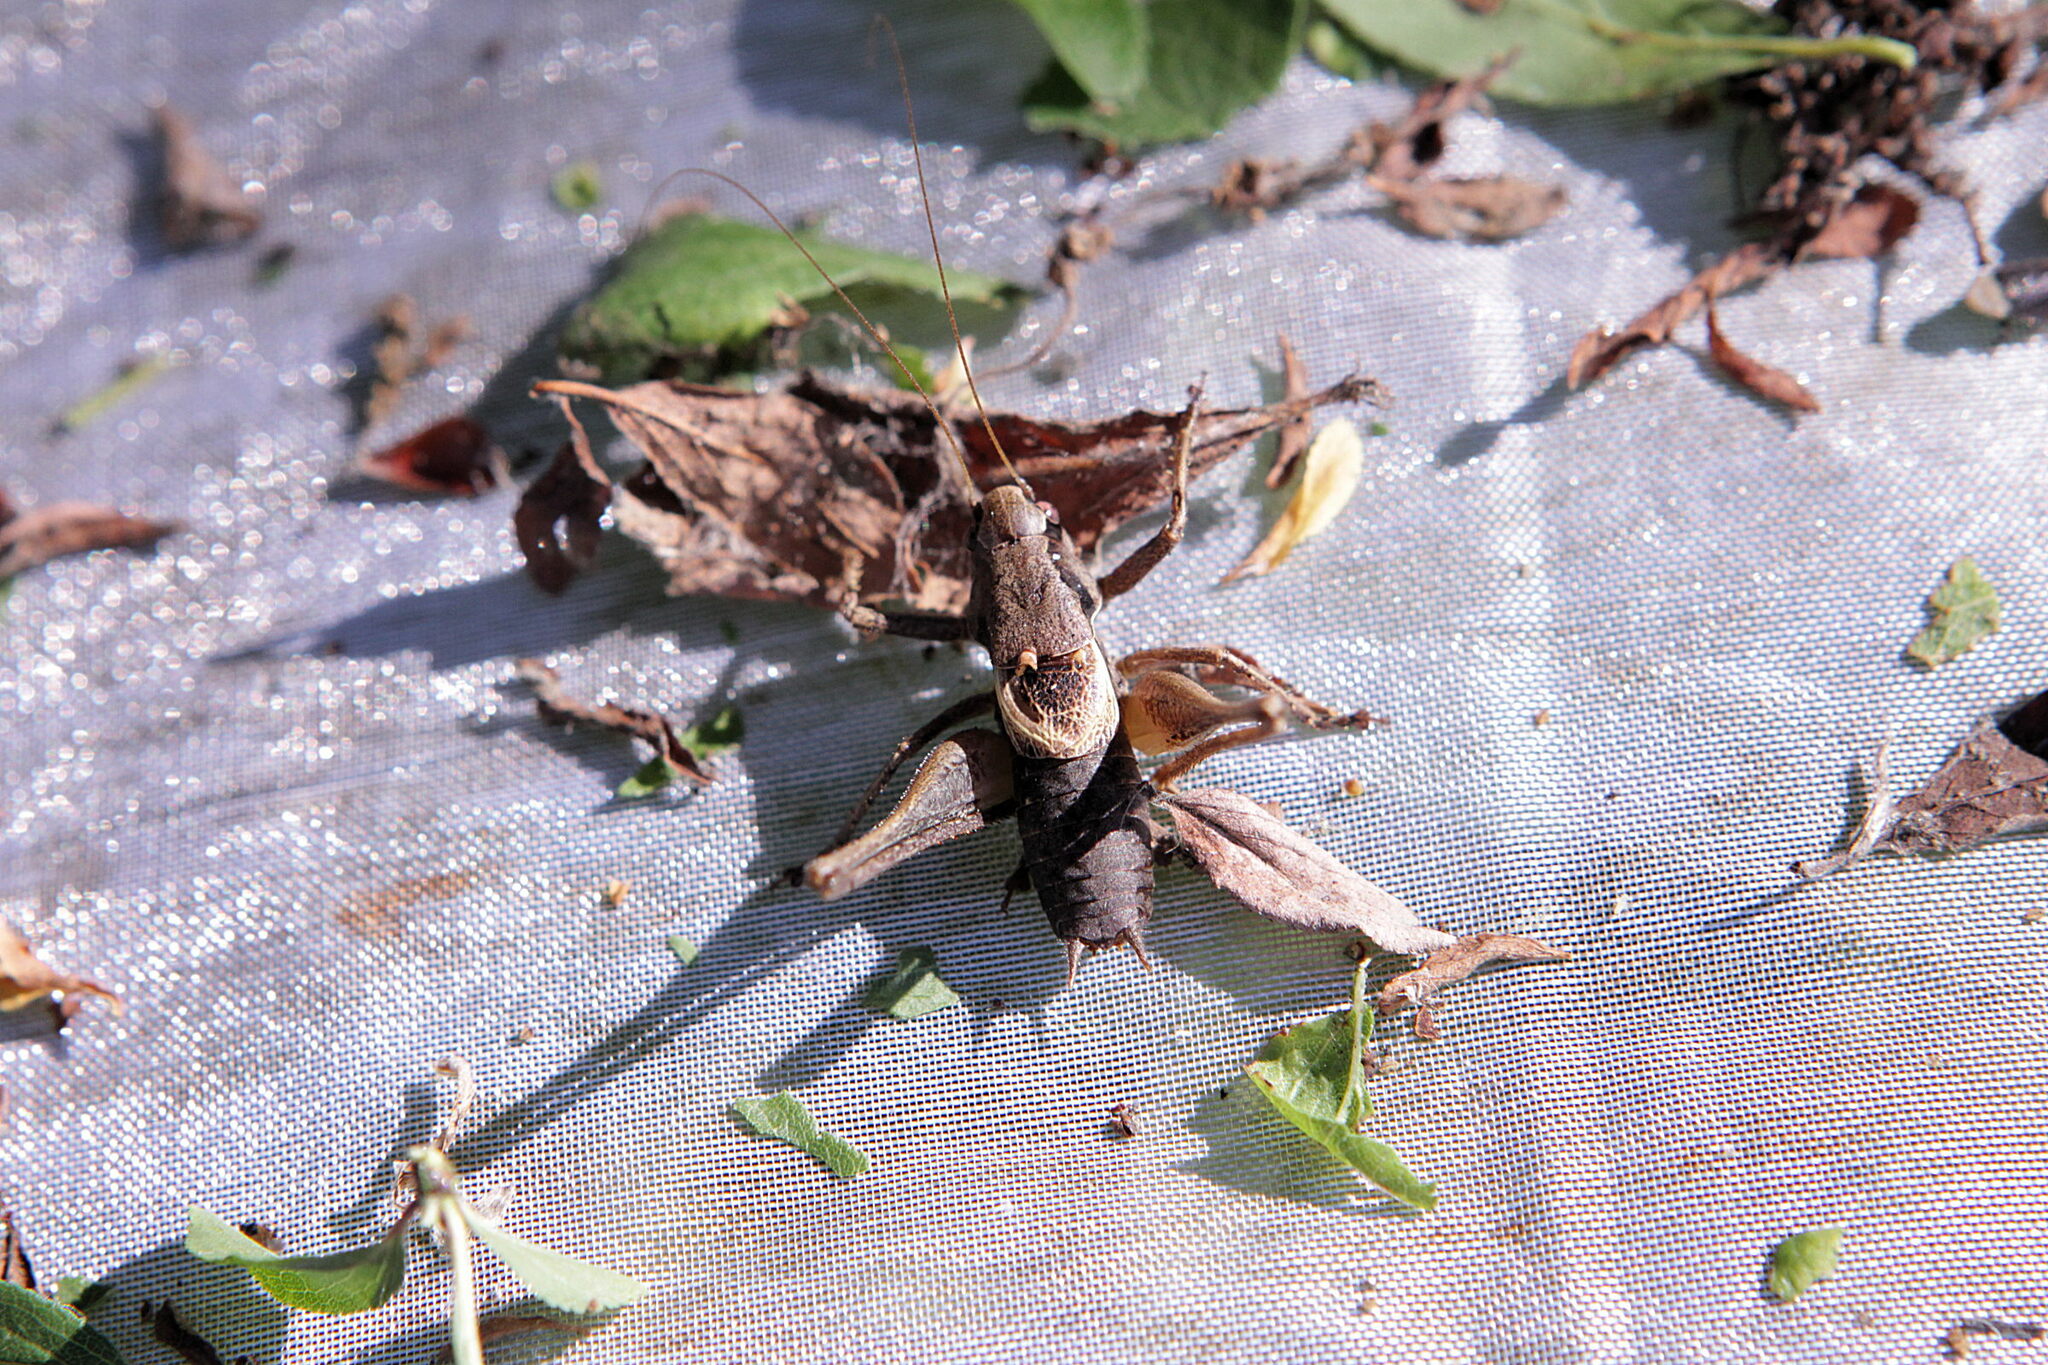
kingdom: Animalia
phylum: Arthropoda
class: Insecta
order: Orthoptera
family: Tettigoniidae
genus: Pholidoptera
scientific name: Pholidoptera griseoaptera
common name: Dark bush-cricket
